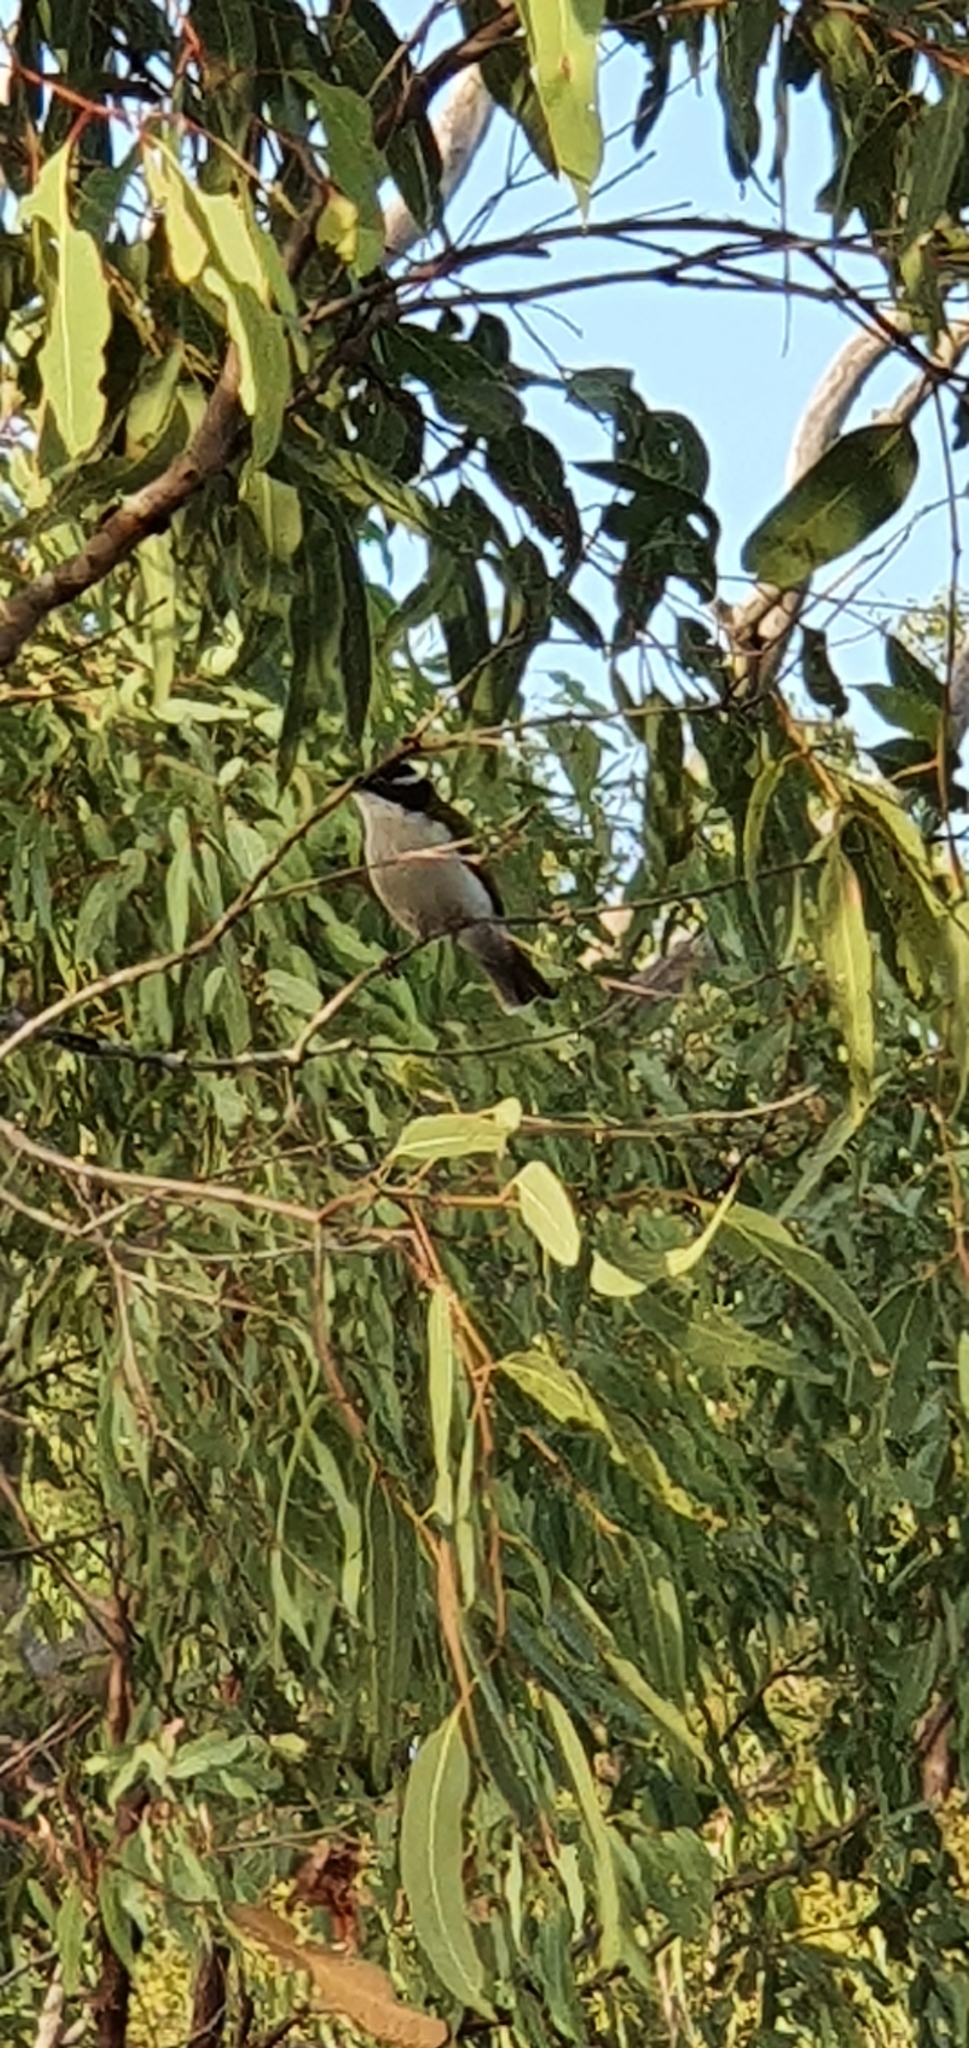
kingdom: Animalia
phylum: Chordata
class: Aves
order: Passeriformes
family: Rhipiduridae
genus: Rhipidura
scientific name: Rhipidura leucophrys
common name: Willie wagtail
